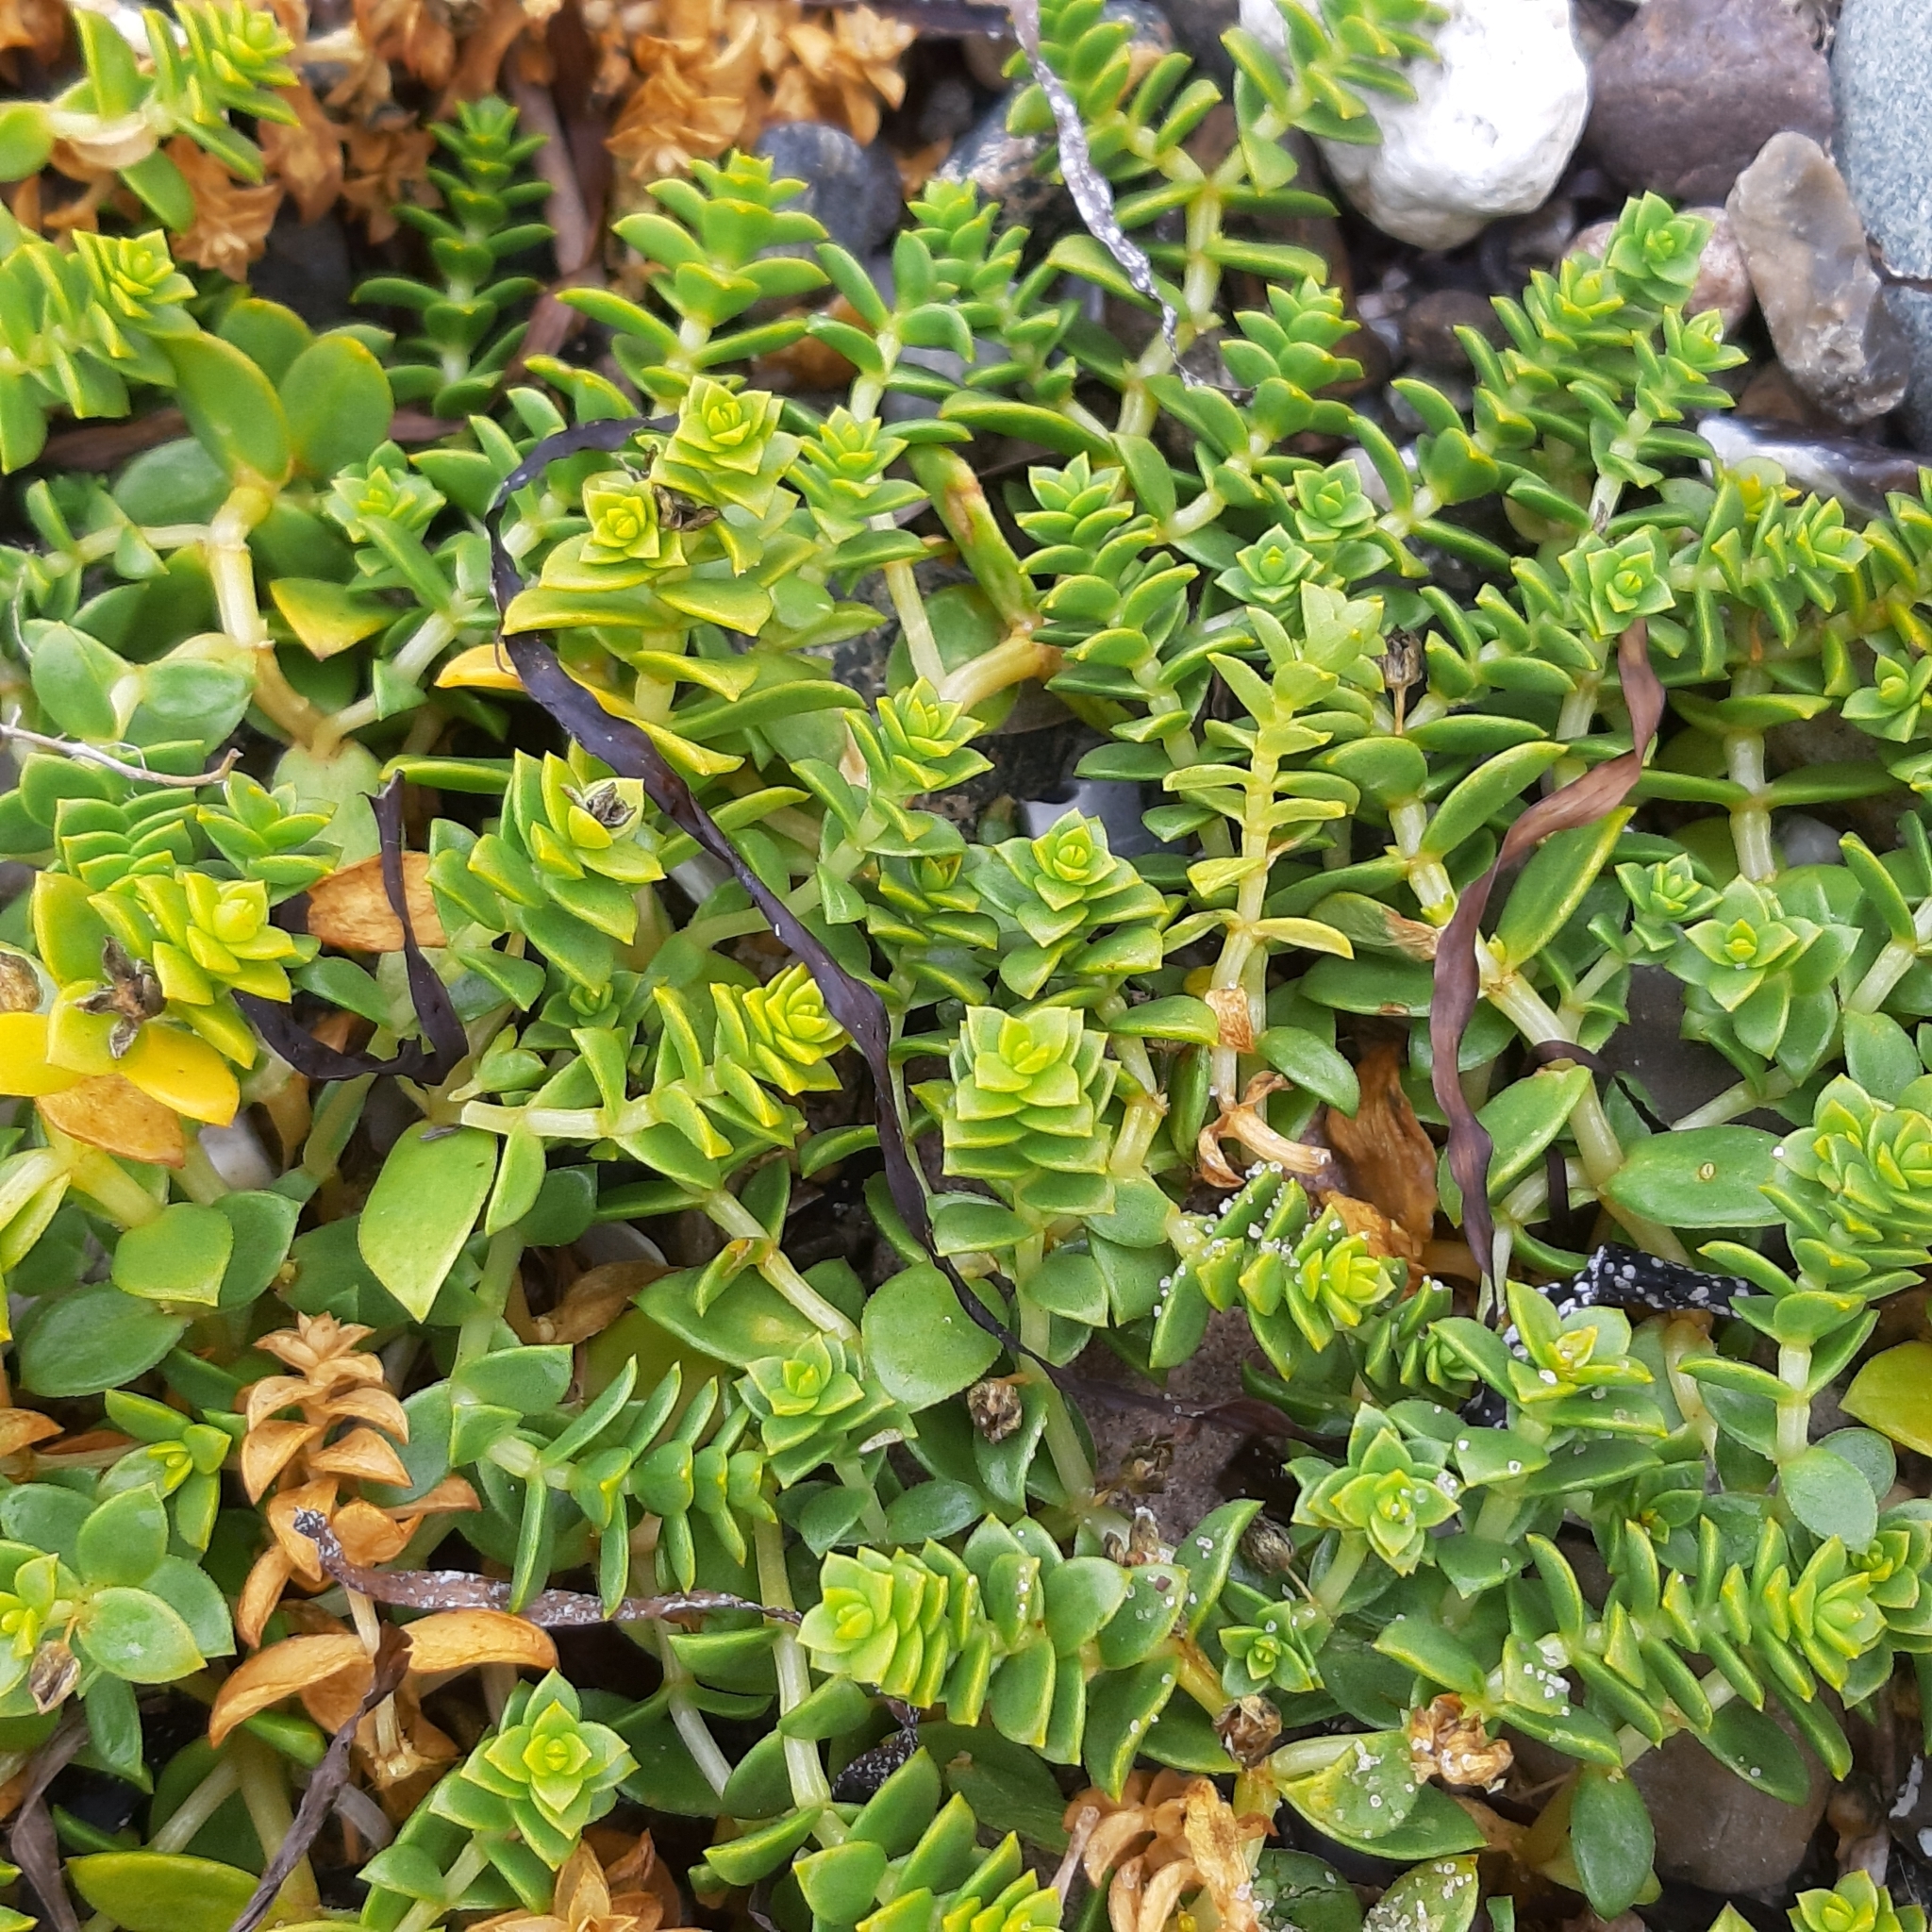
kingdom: Plantae
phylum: Tracheophyta
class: Magnoliopsida
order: Caryophyllales
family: Caryophyllaceae
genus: Honckenya
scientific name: Honckenya peploides
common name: Sea sandwort
